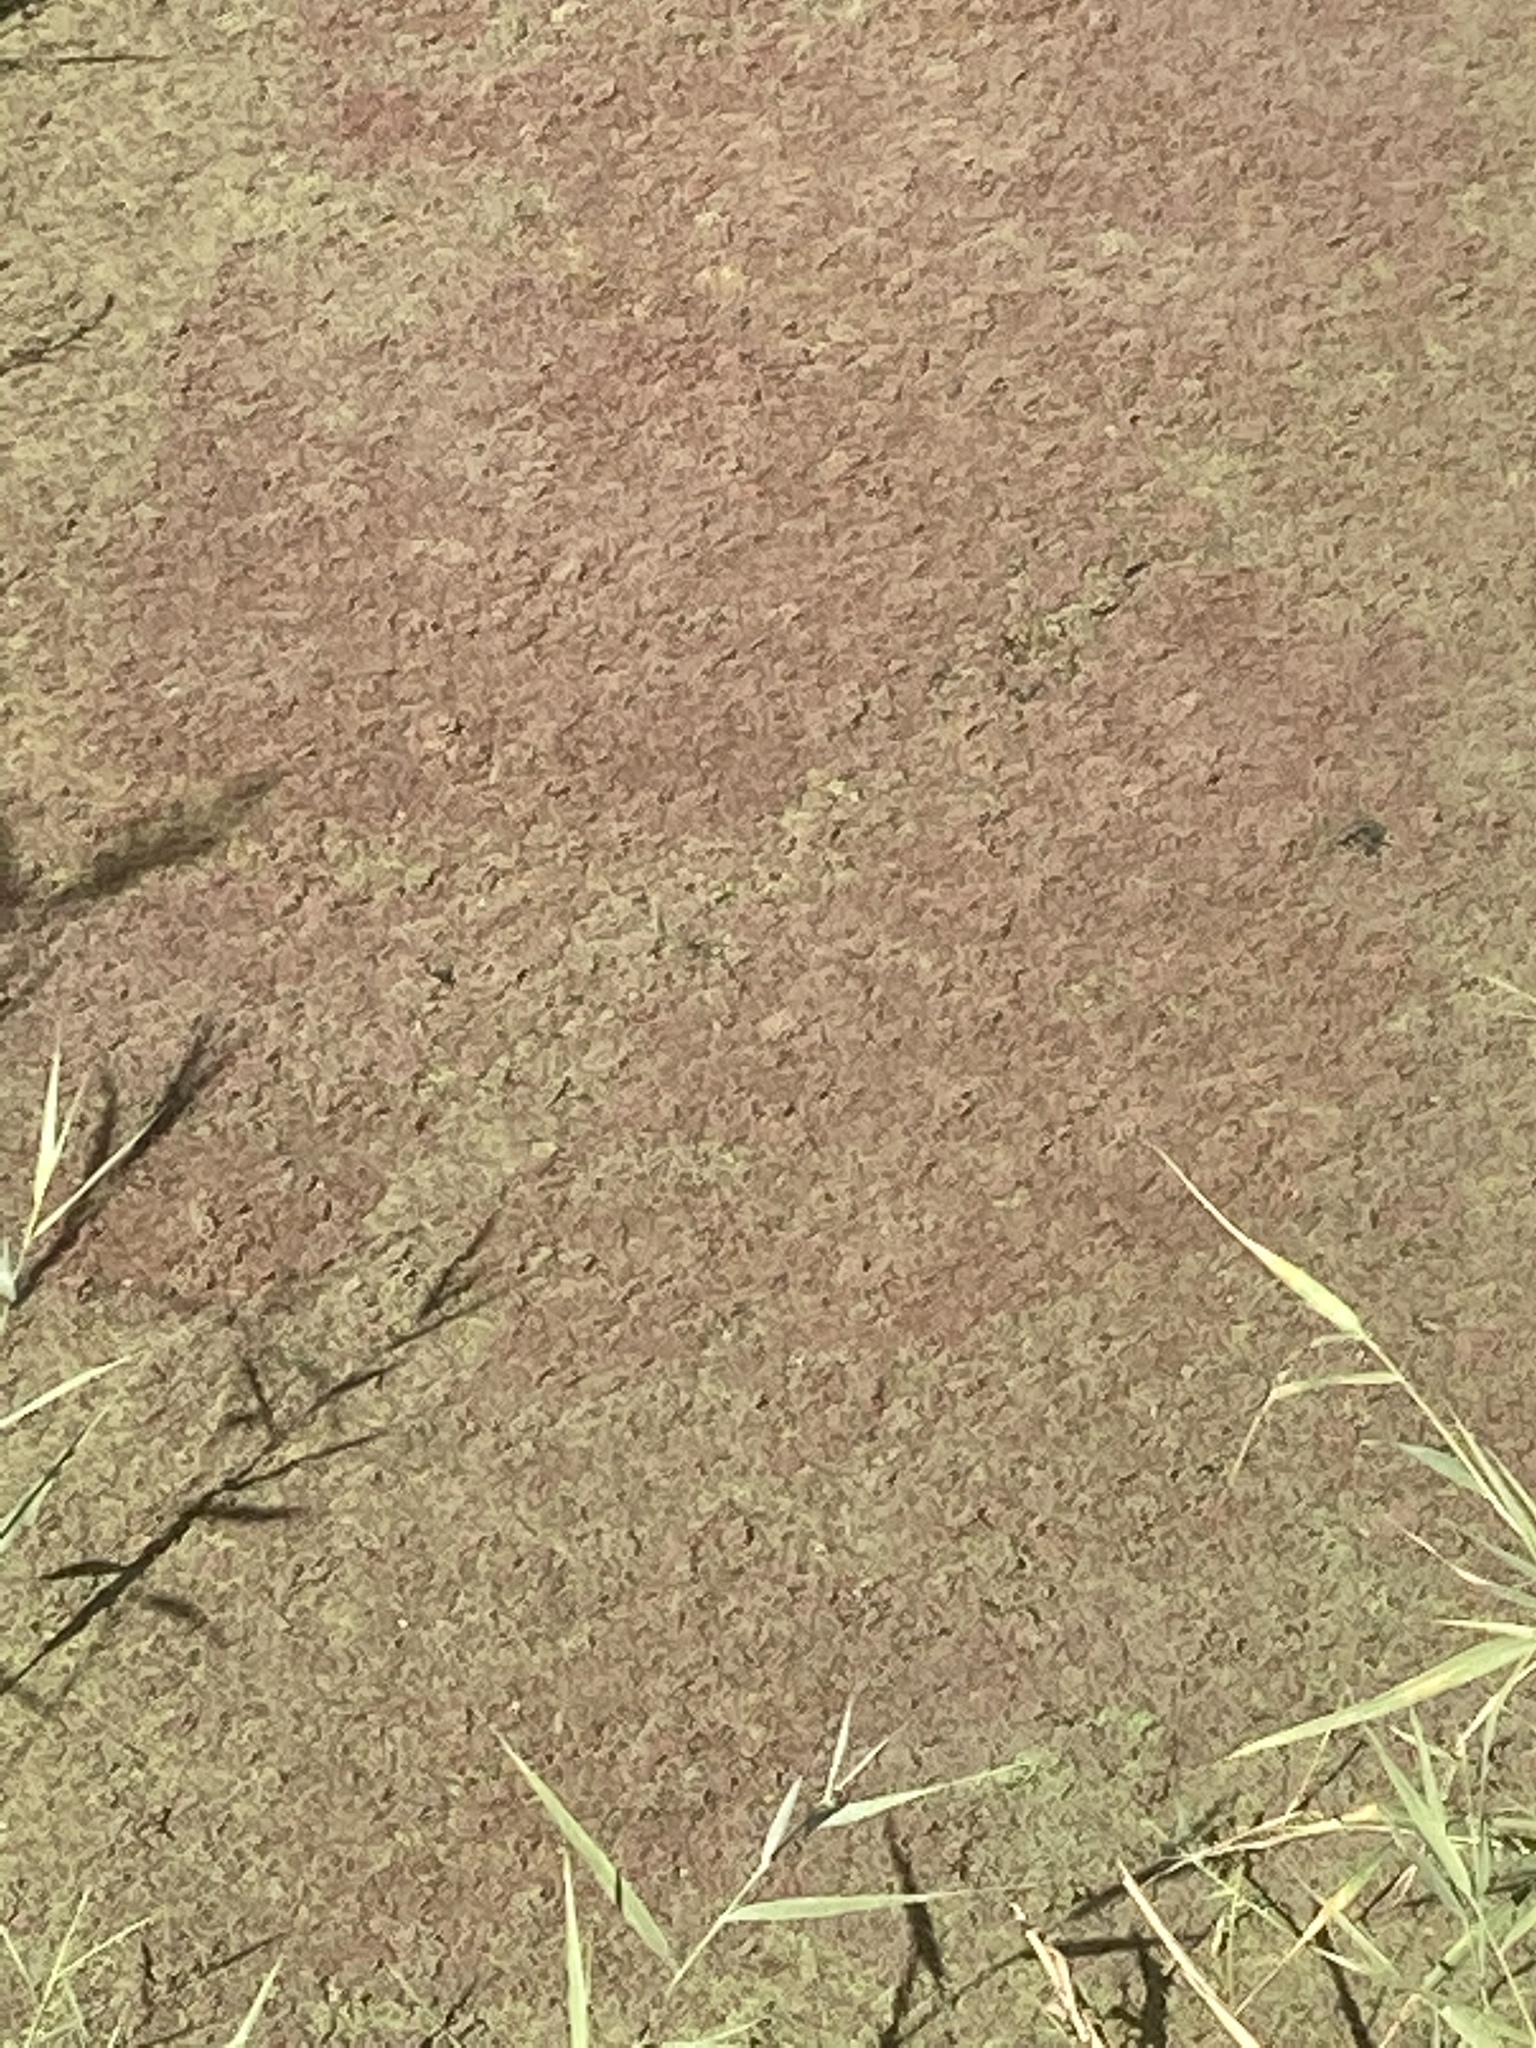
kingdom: Plantae
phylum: Tracheophyta
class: Polypodiopsida
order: Salviniales
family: Salviniaceae
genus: Azolla
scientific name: Azolla filiculoides
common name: Water fern
